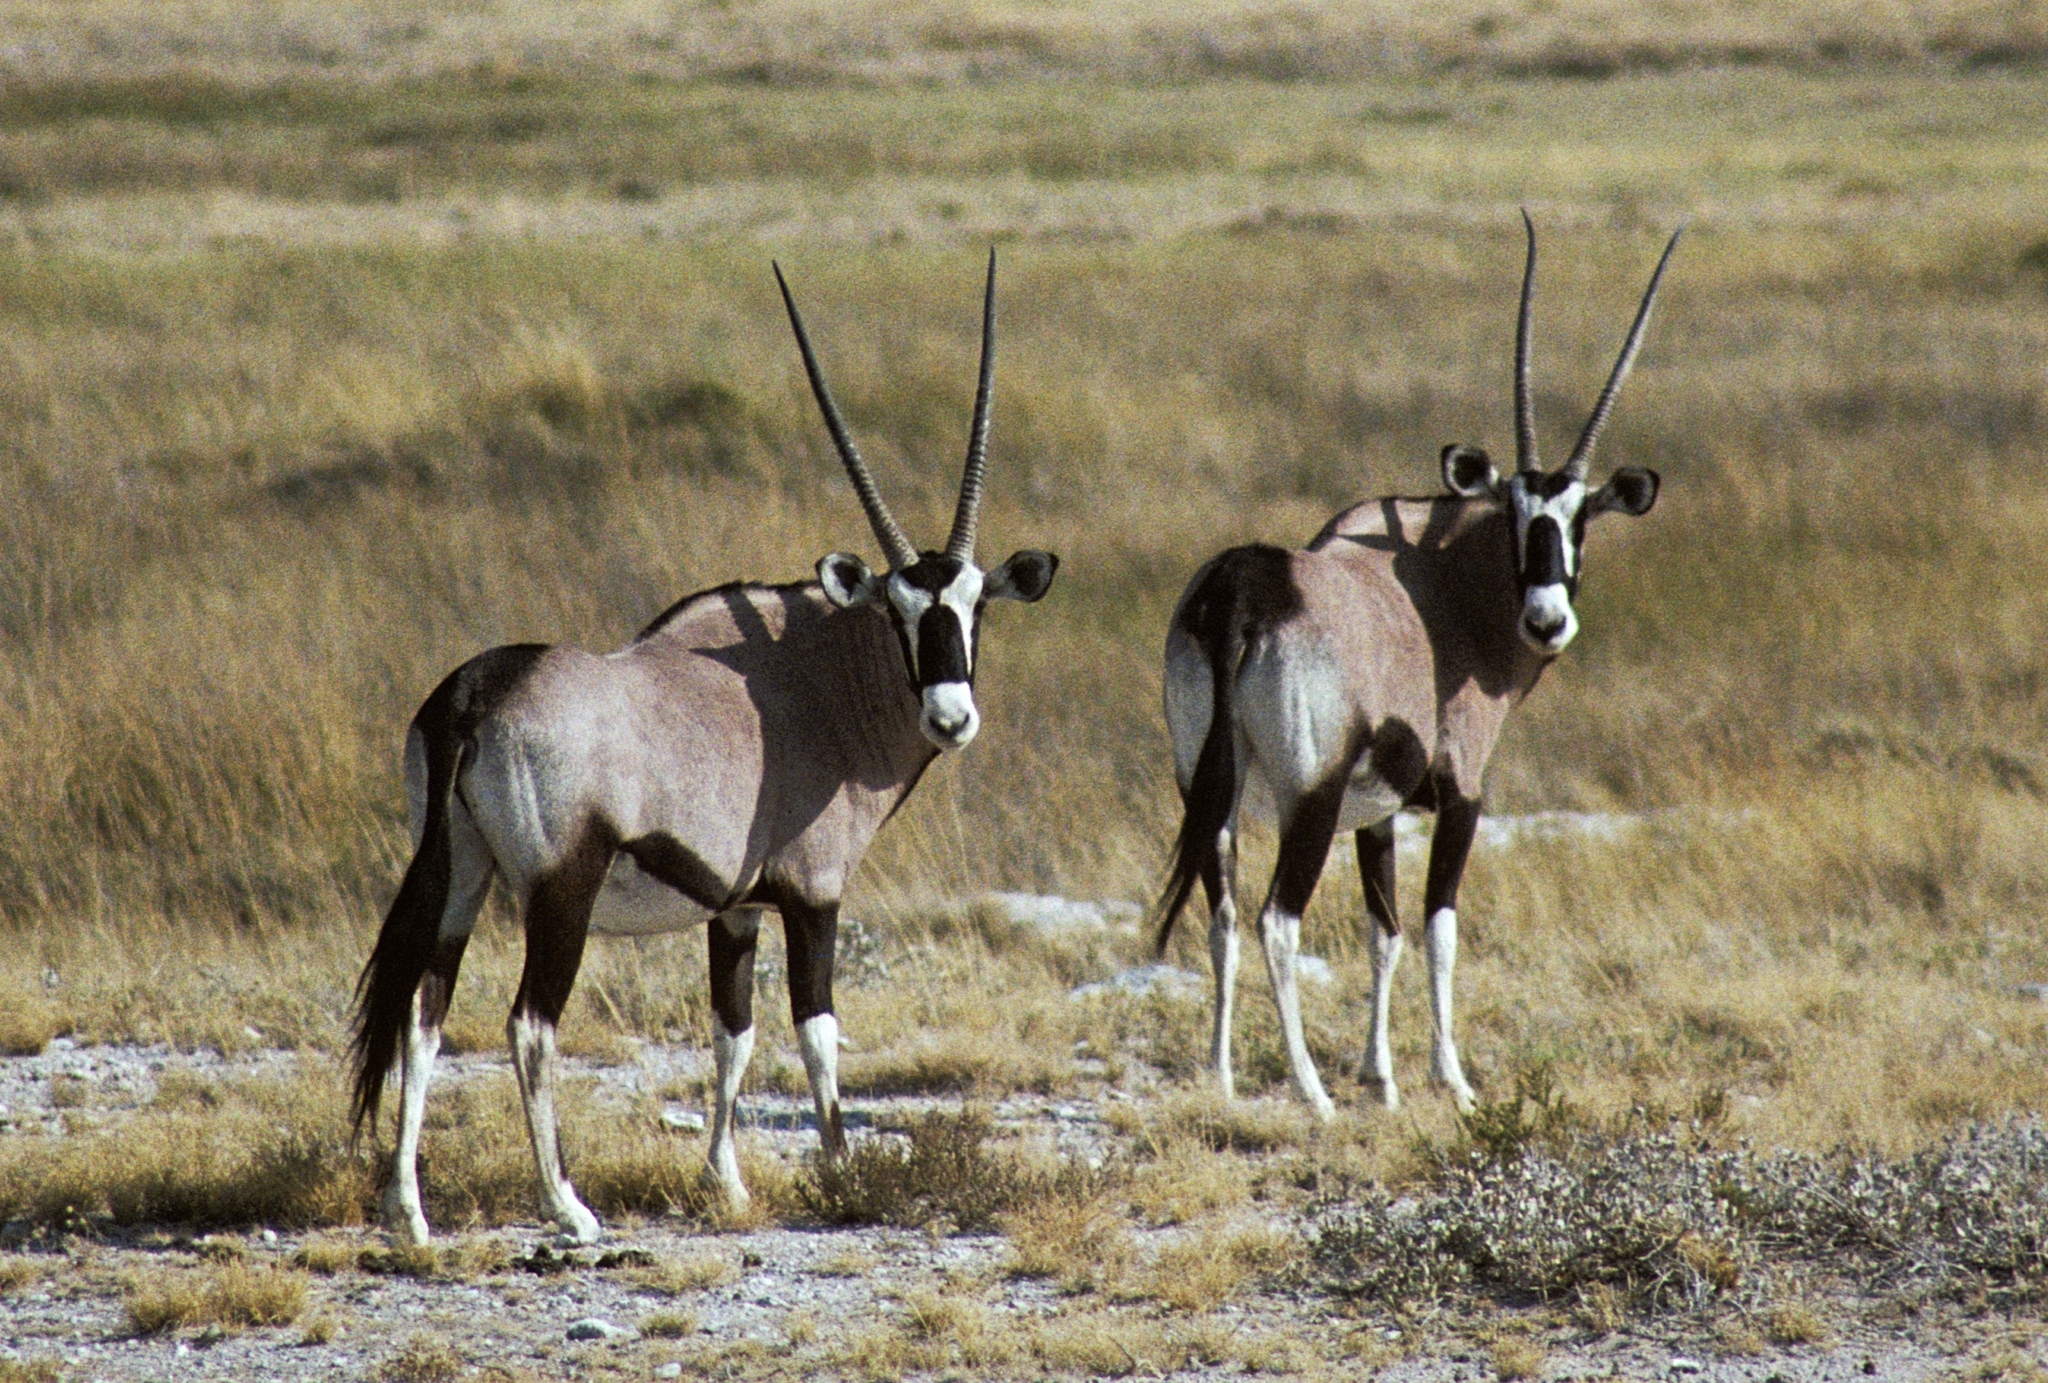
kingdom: Animalia
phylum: Chordata
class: Mammalia
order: Artiodactyla
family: Bovidae
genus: Oryx
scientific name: Oryx gazella
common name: Gemsbok
